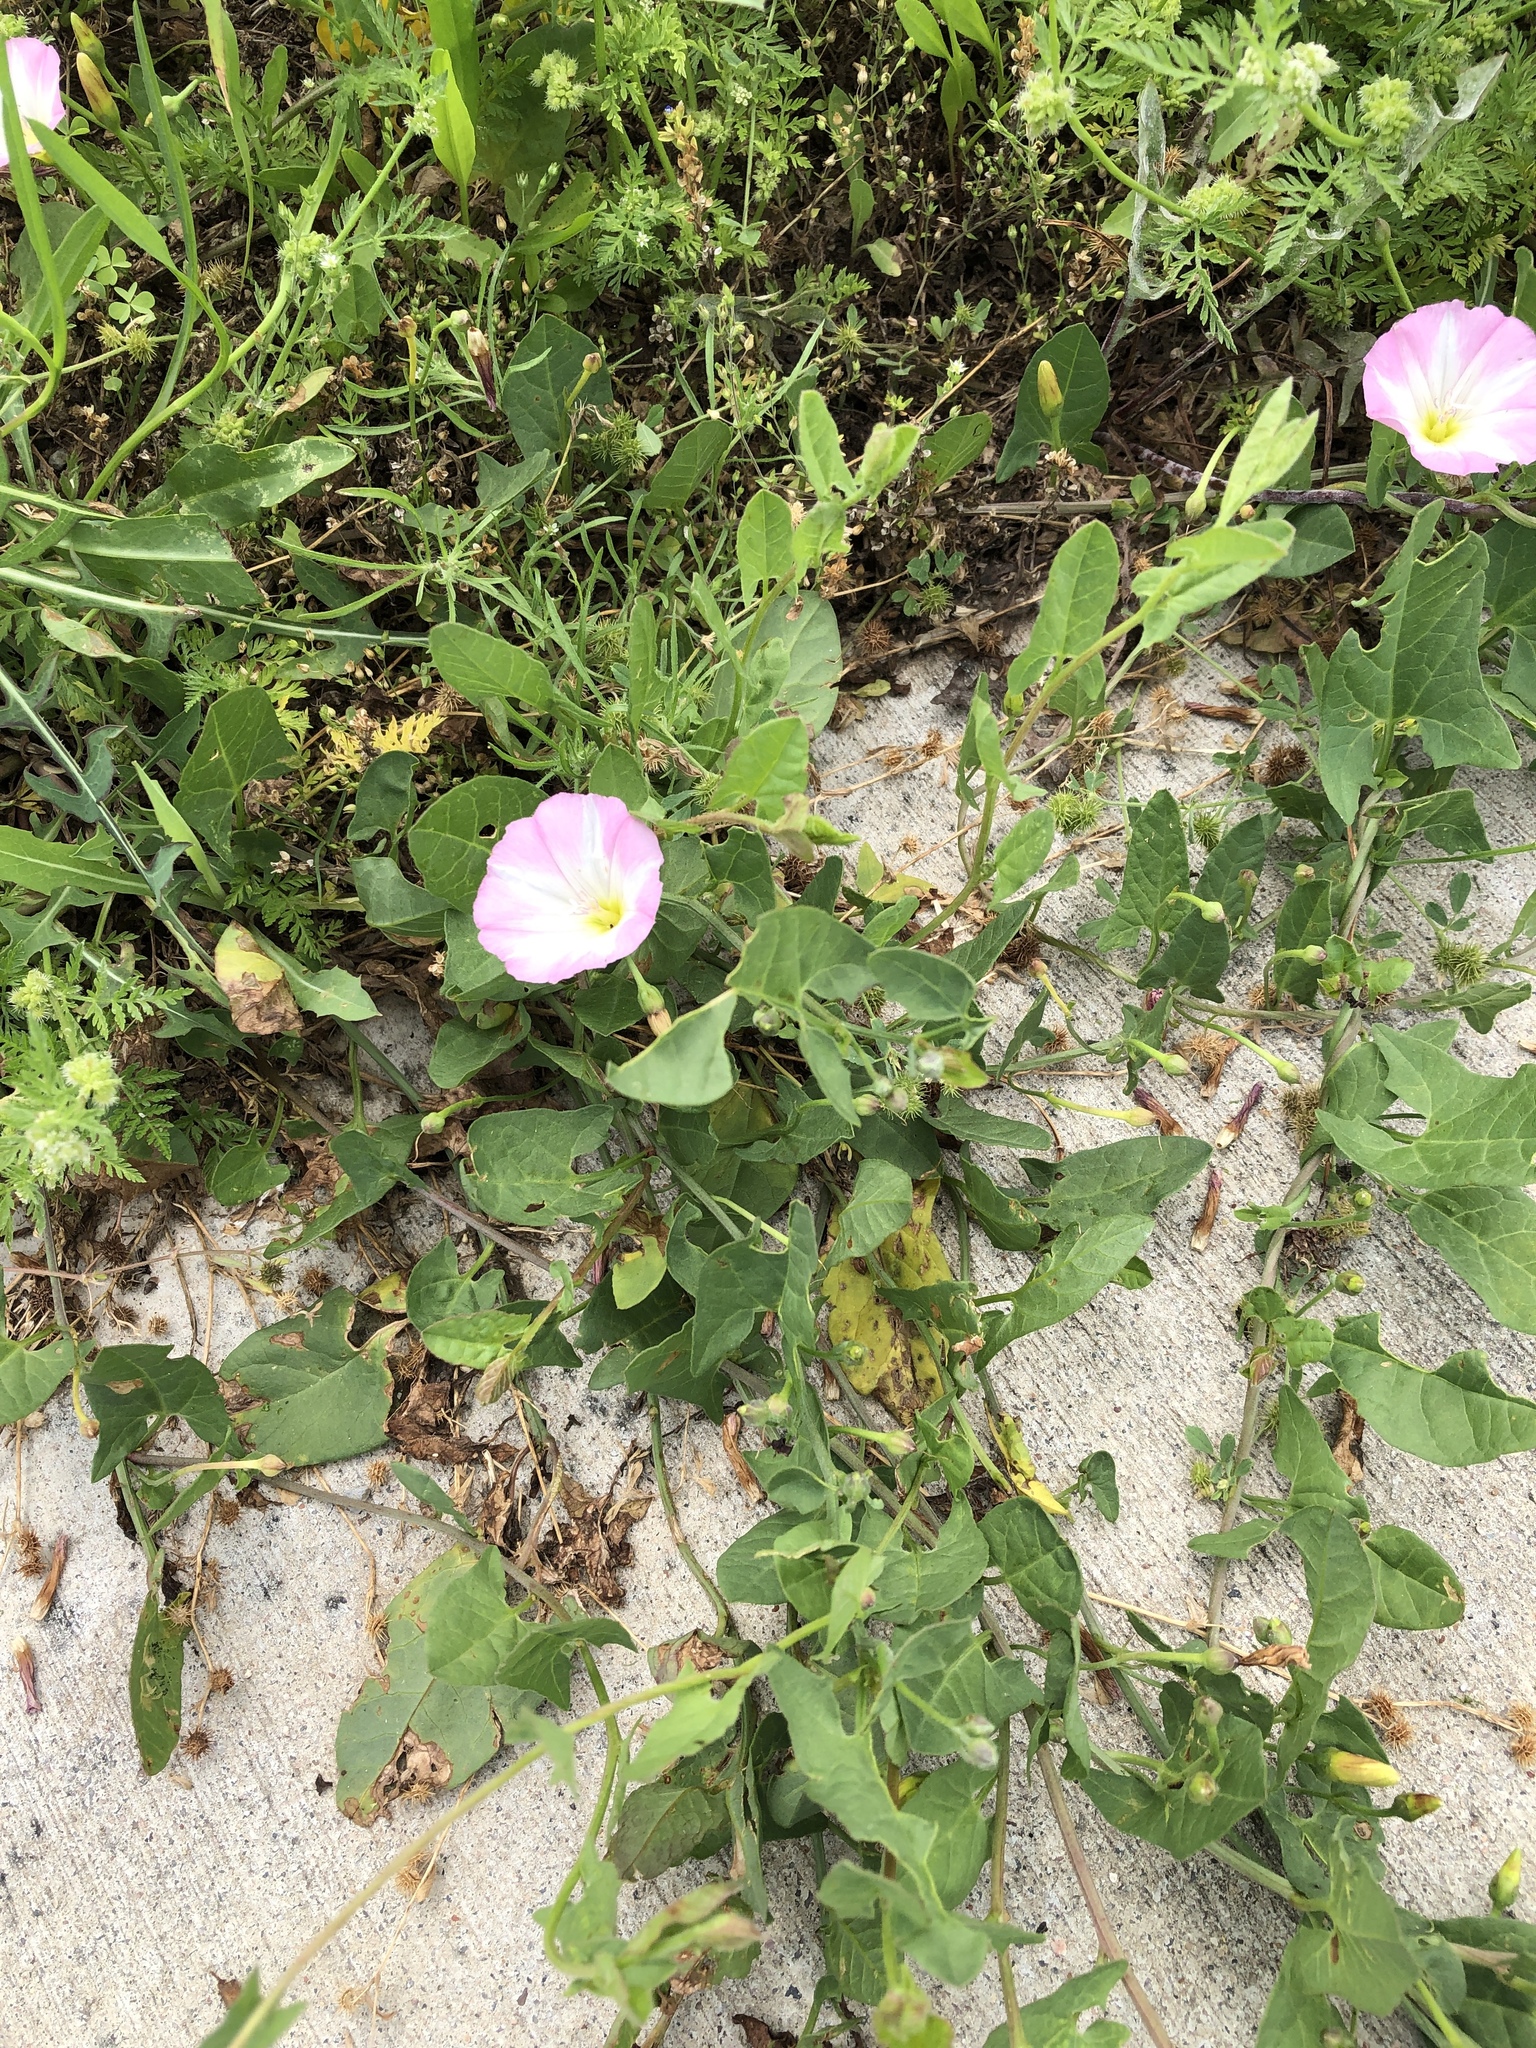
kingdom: Plantae
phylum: Tracheophyta
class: Magnoliopsida
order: Solanales
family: Convolvulaceae
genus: Convolvulus
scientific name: Convolvulus arvensis
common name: Field bindweed
